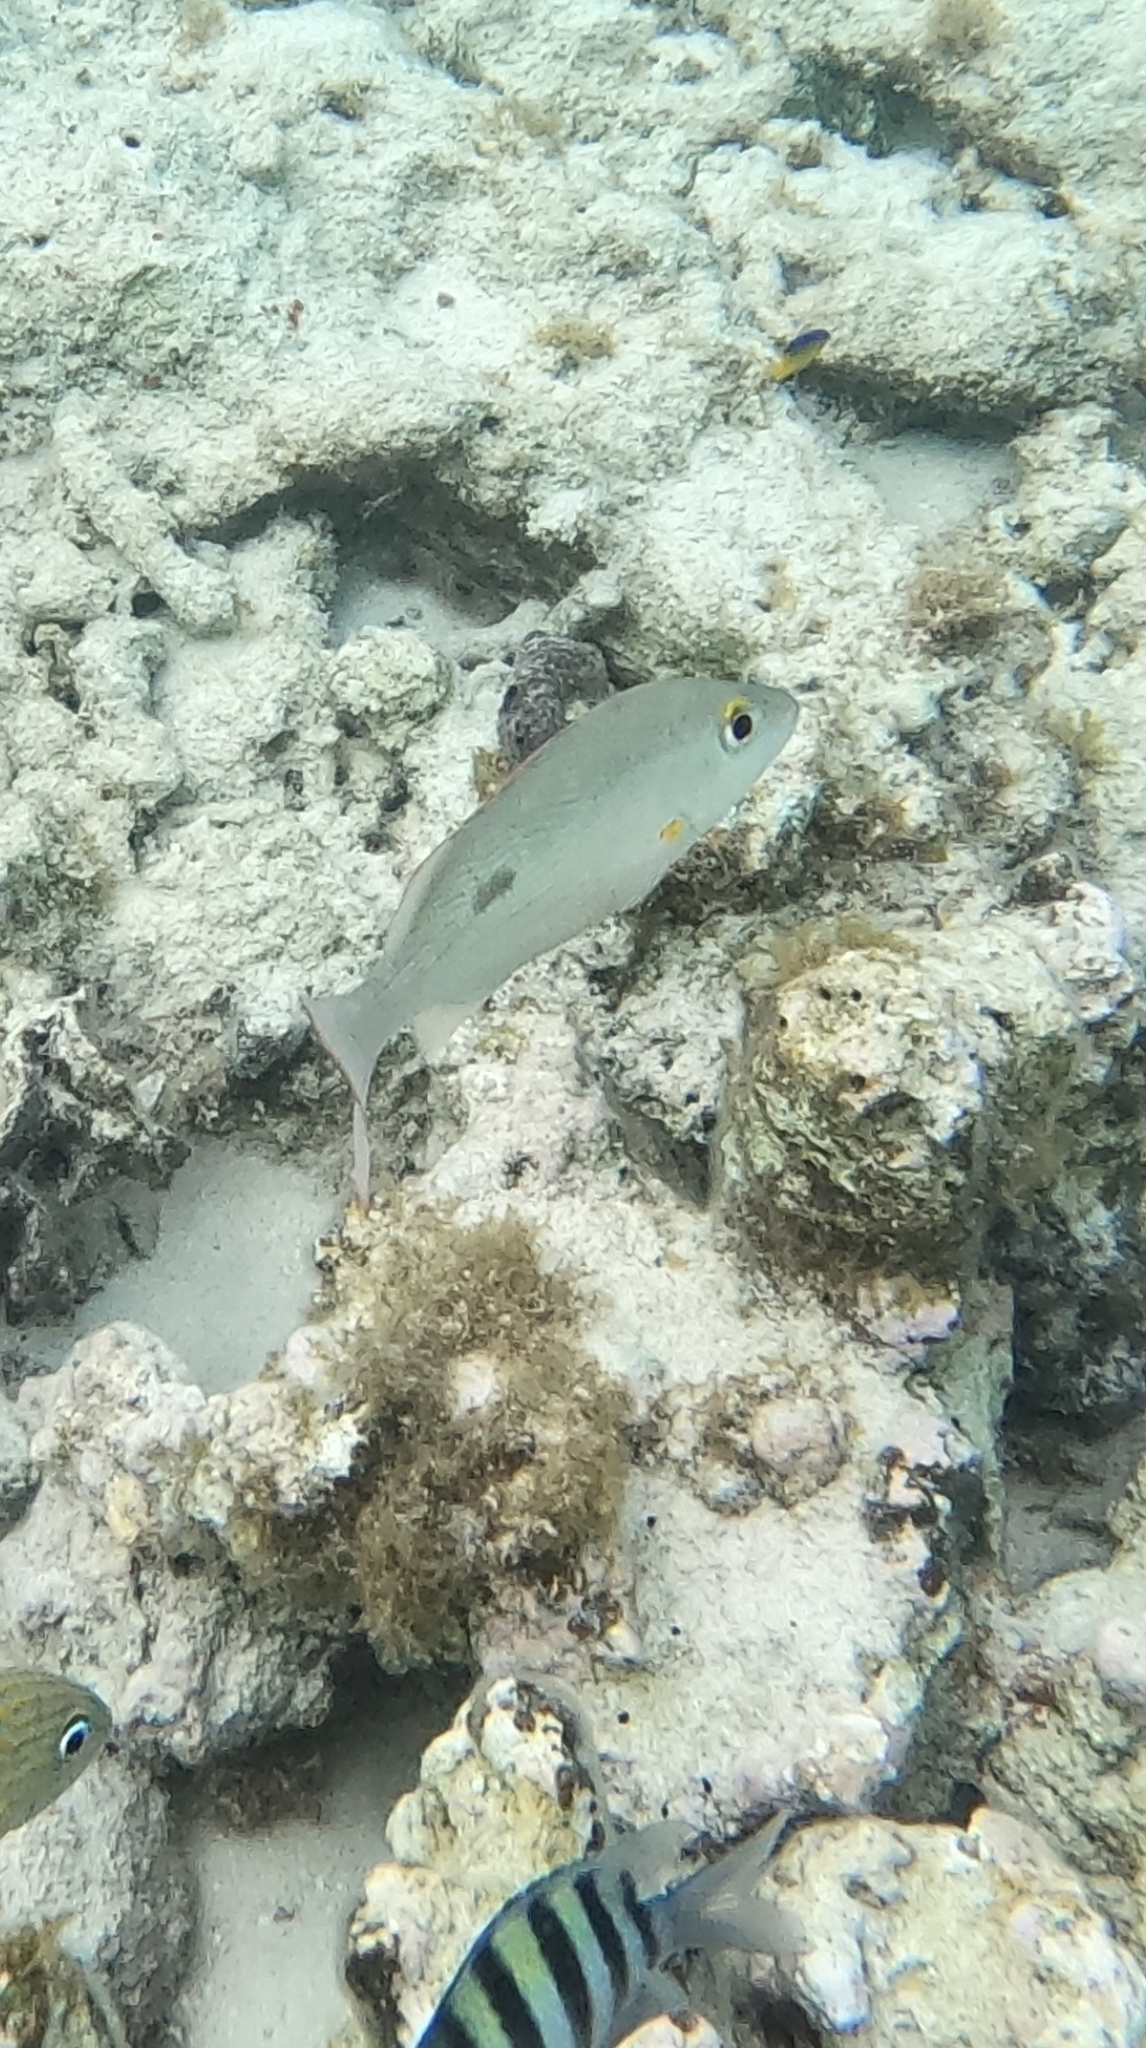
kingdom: Animalia
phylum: Chordata
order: Perciformes
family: Lutjanidae
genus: Lutjanus
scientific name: Lutjanus mahogoni
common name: Spot snapper
